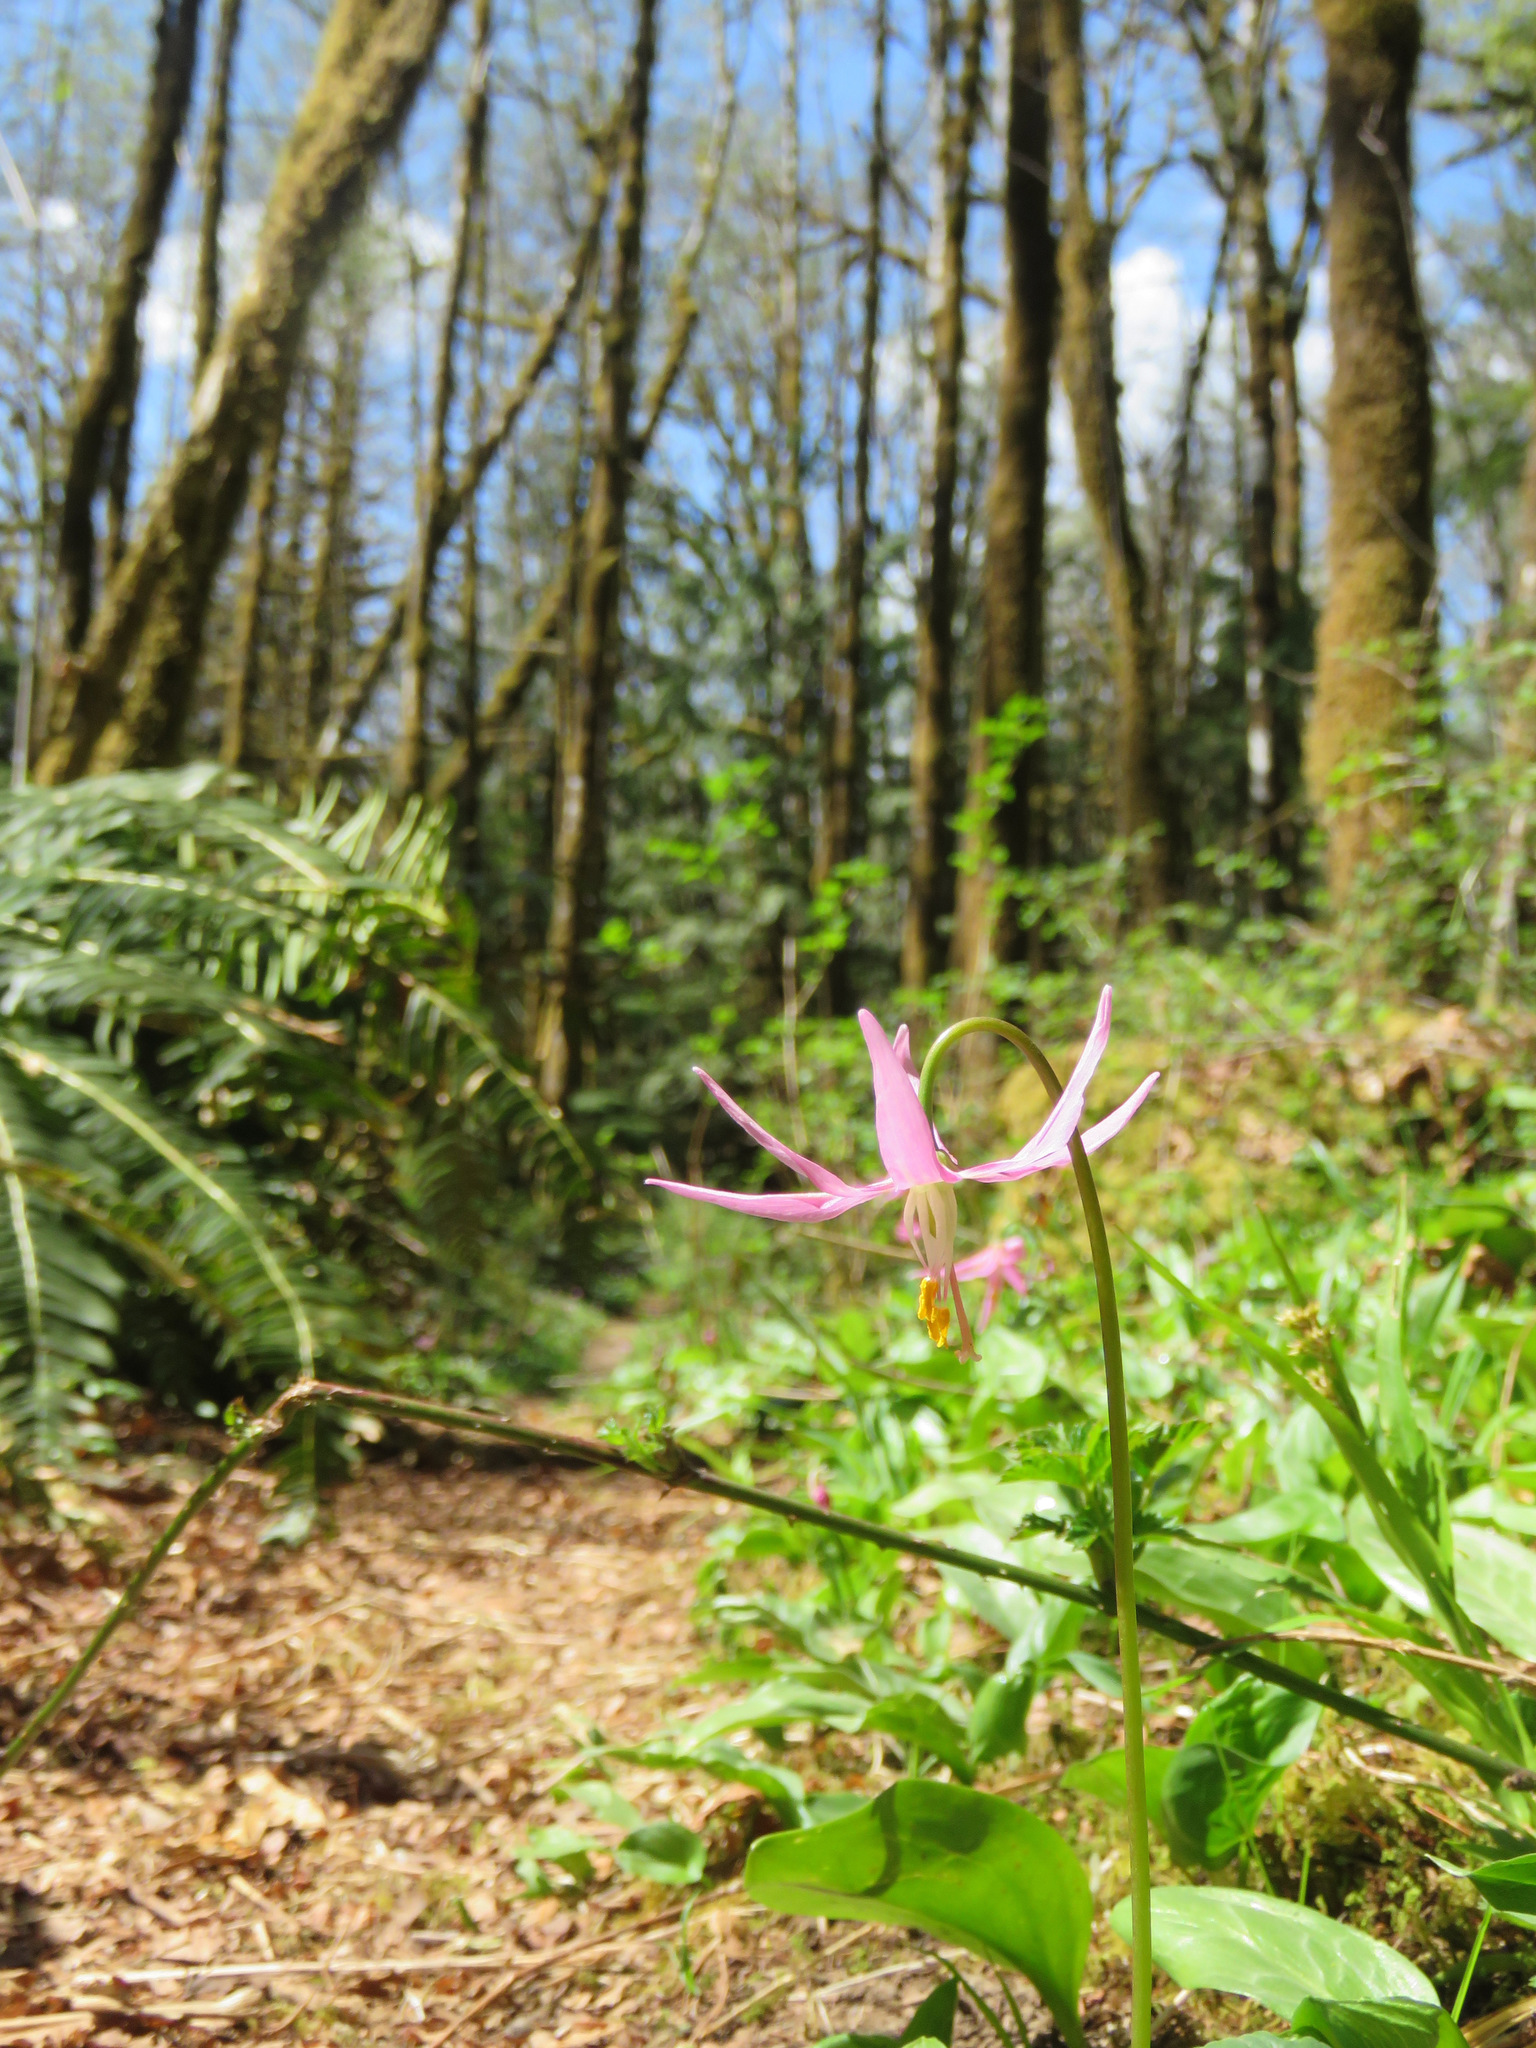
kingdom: Plantae
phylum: Tracheophyta
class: Liliopsida
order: Liliales
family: Liliaceae
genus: Erythronium
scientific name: Erythronium revolutum
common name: Pink fawn-lily
